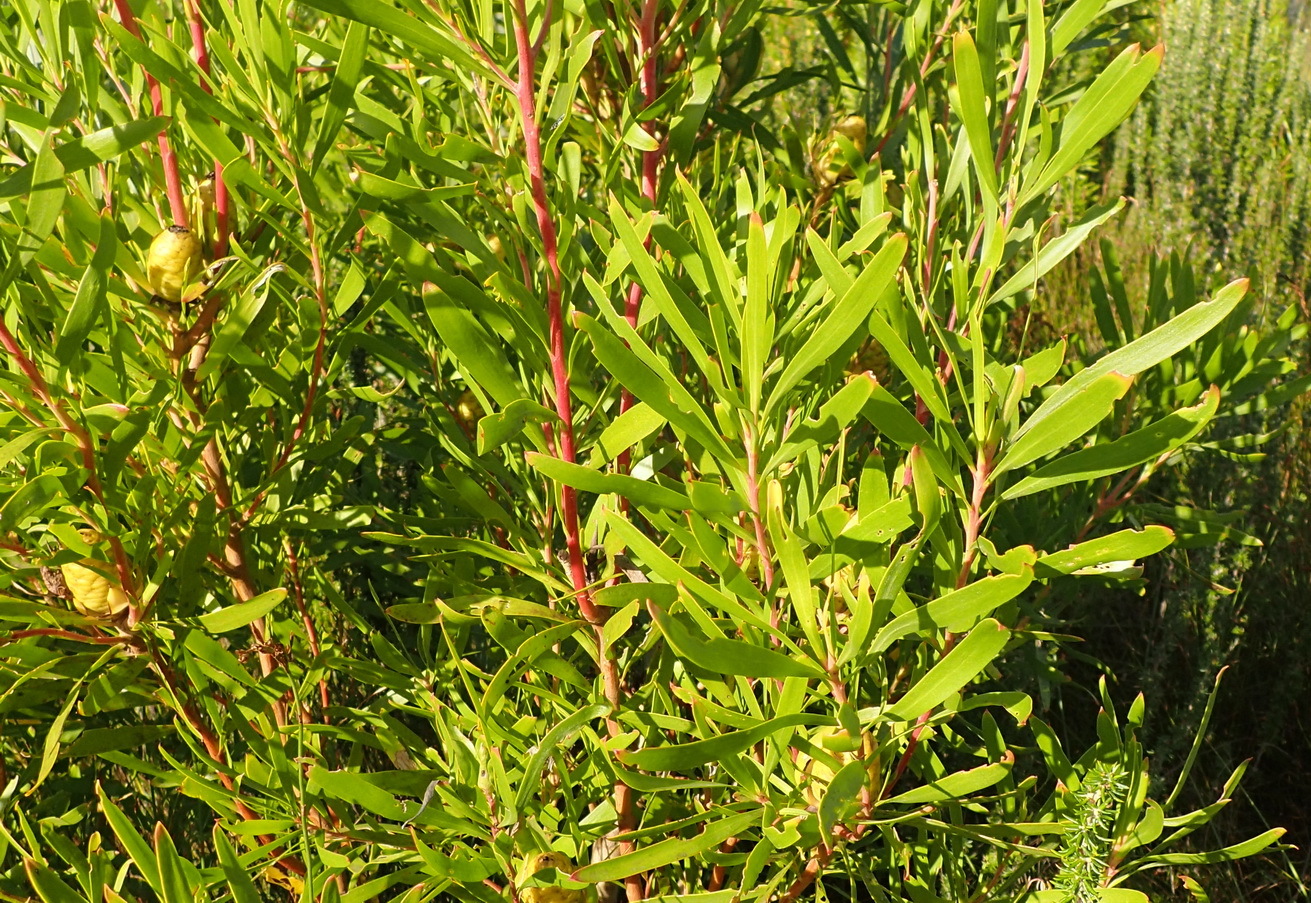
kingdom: Plantae
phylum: Tracheophyta
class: Magnoliopsida
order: Proteales
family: Proteaceae
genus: Leucadendron
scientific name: Leucadendron eucalyptifolium
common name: Gum-leaved conebush
